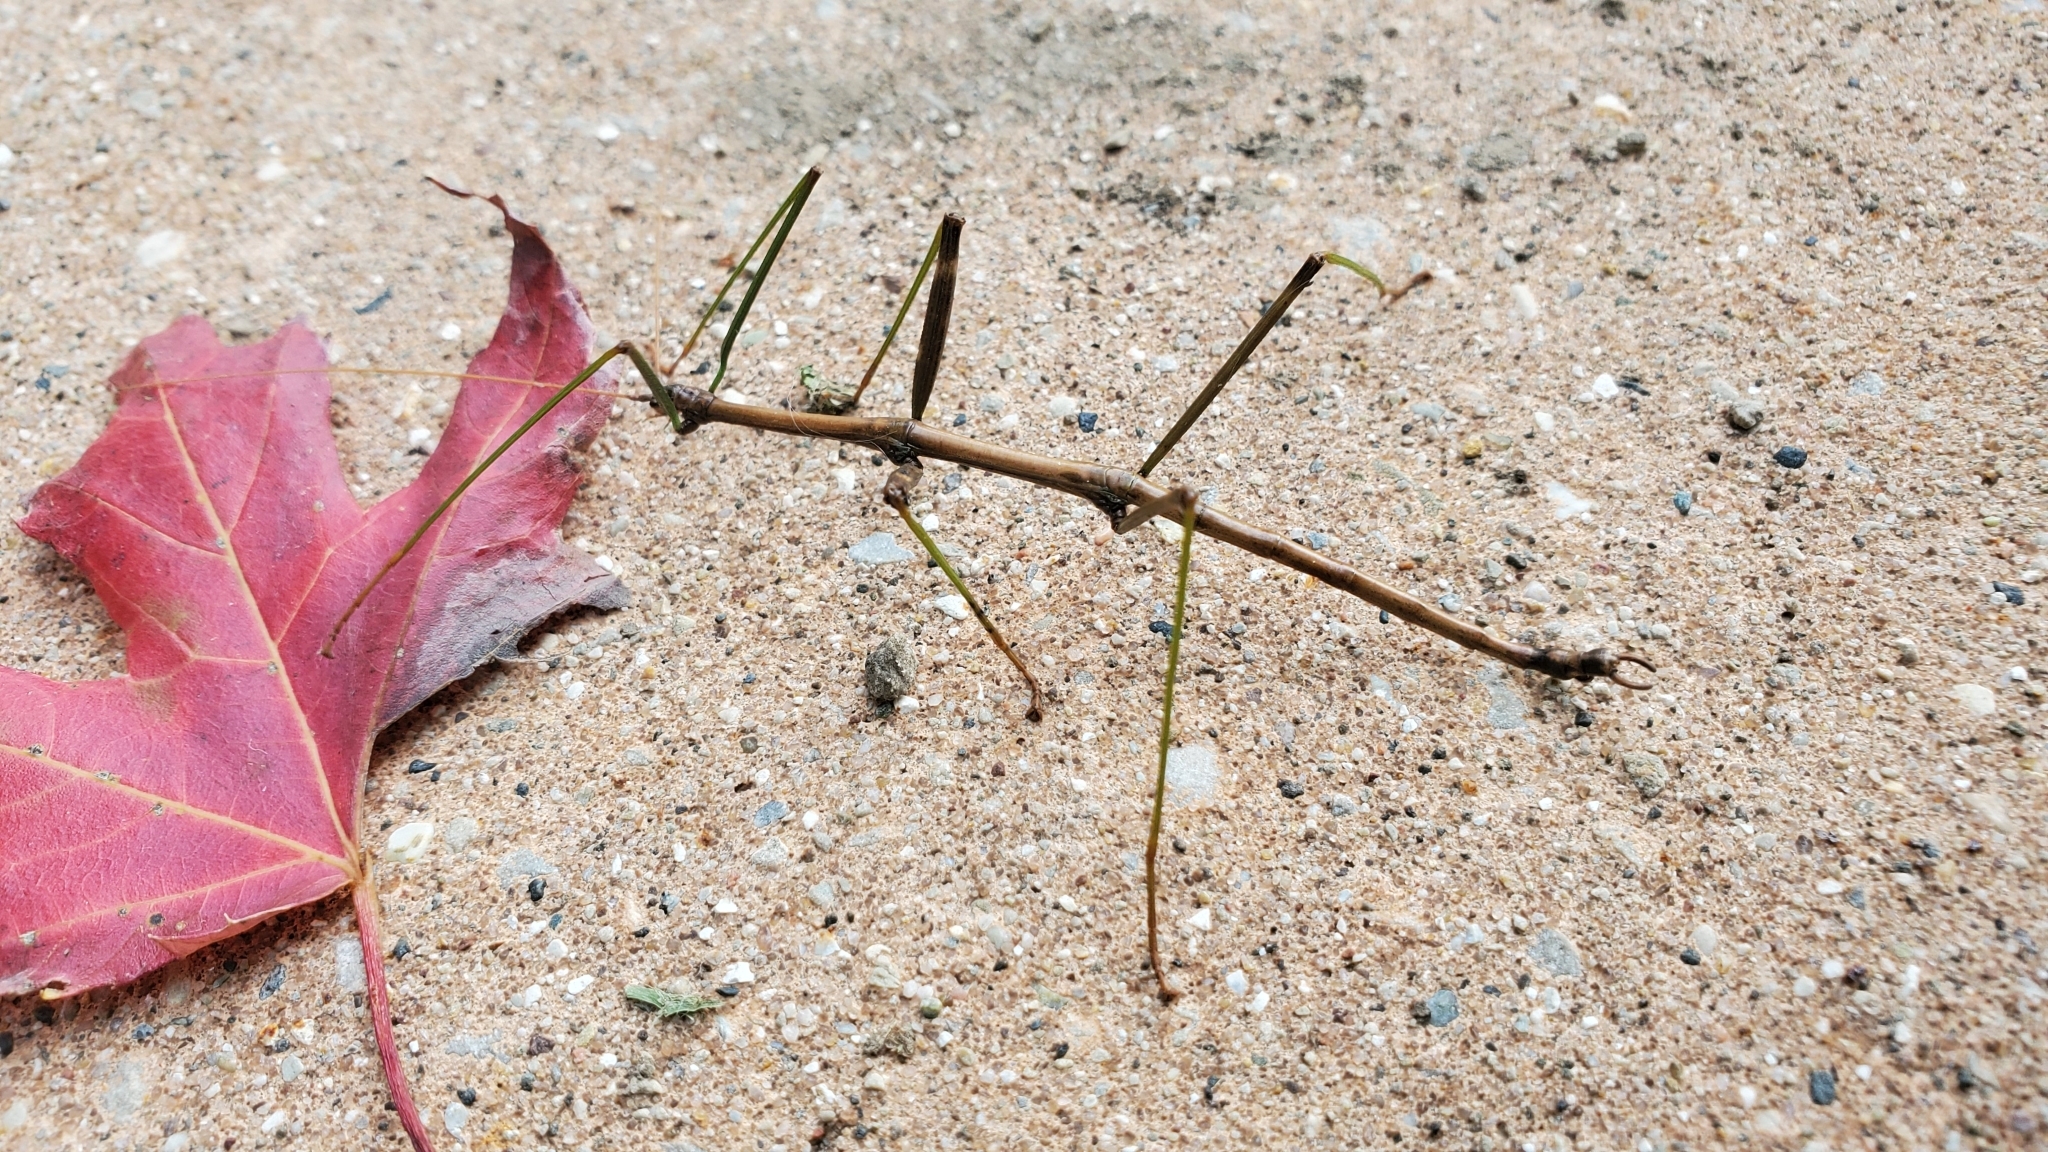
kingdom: Animalia
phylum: Arthropoda
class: Insecta
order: Phasmida
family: Diapheromeridae
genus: Diapheromera
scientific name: Diapheromera femorata
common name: Common american walkingstick
